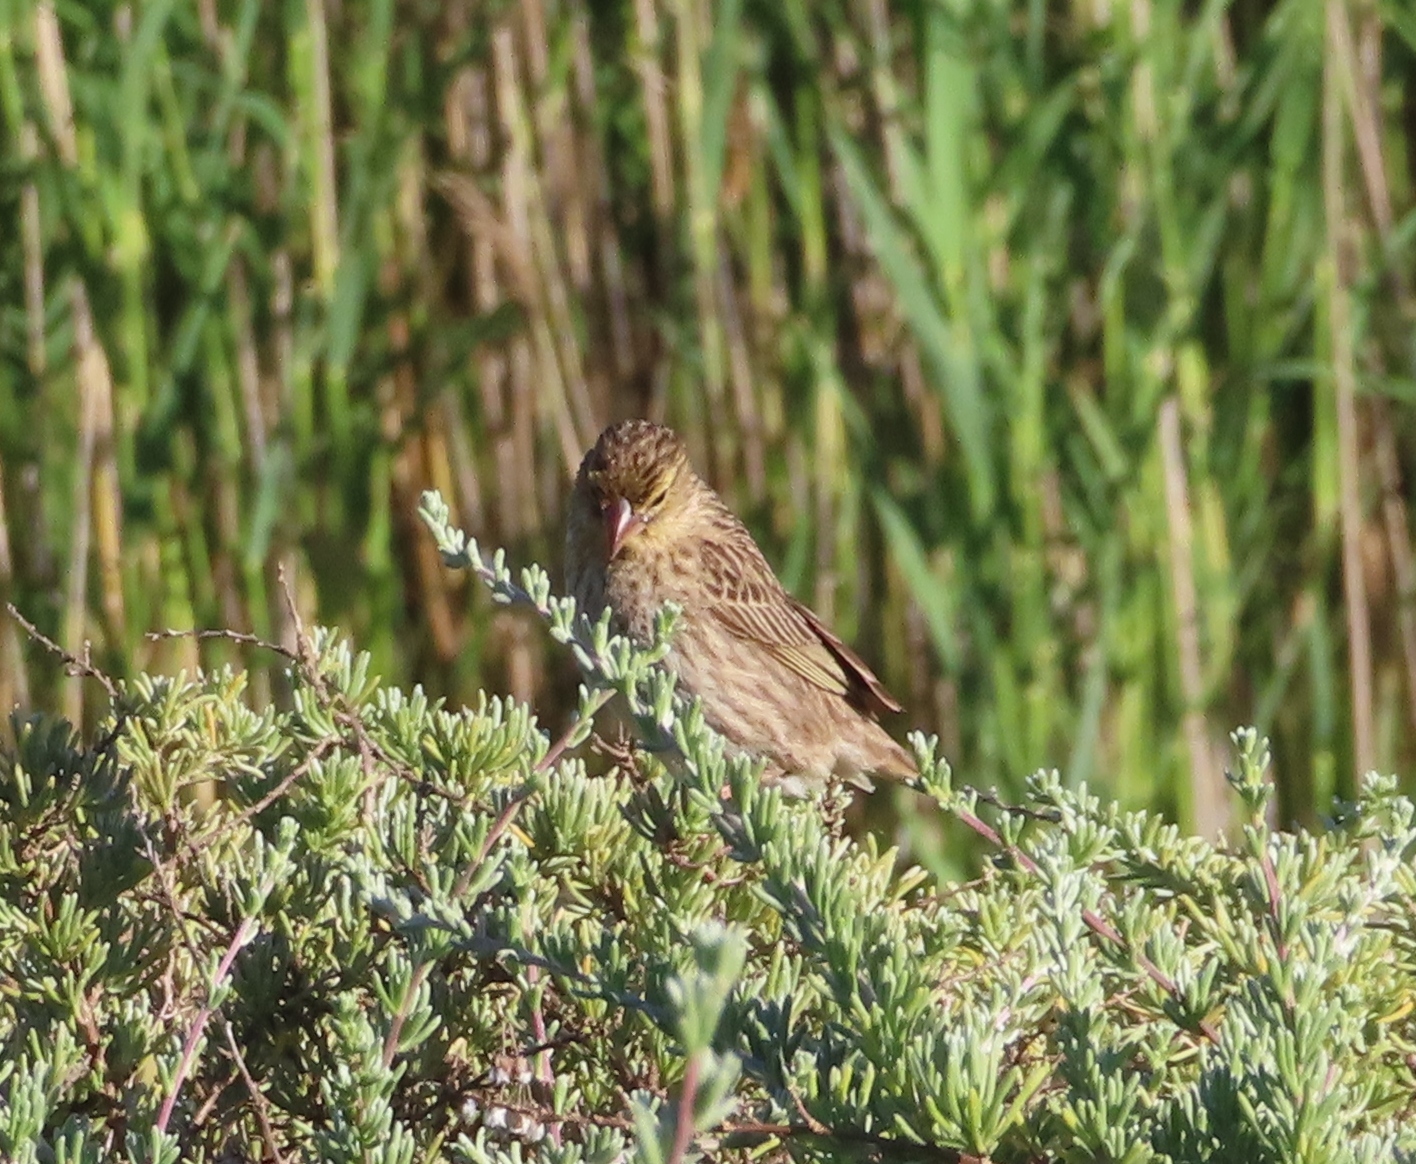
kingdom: Animalia
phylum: Chordata
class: Aves
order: Passeriformes
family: Ploceidae
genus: Euplectes
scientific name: Euplectes orix
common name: Southern red bishop
